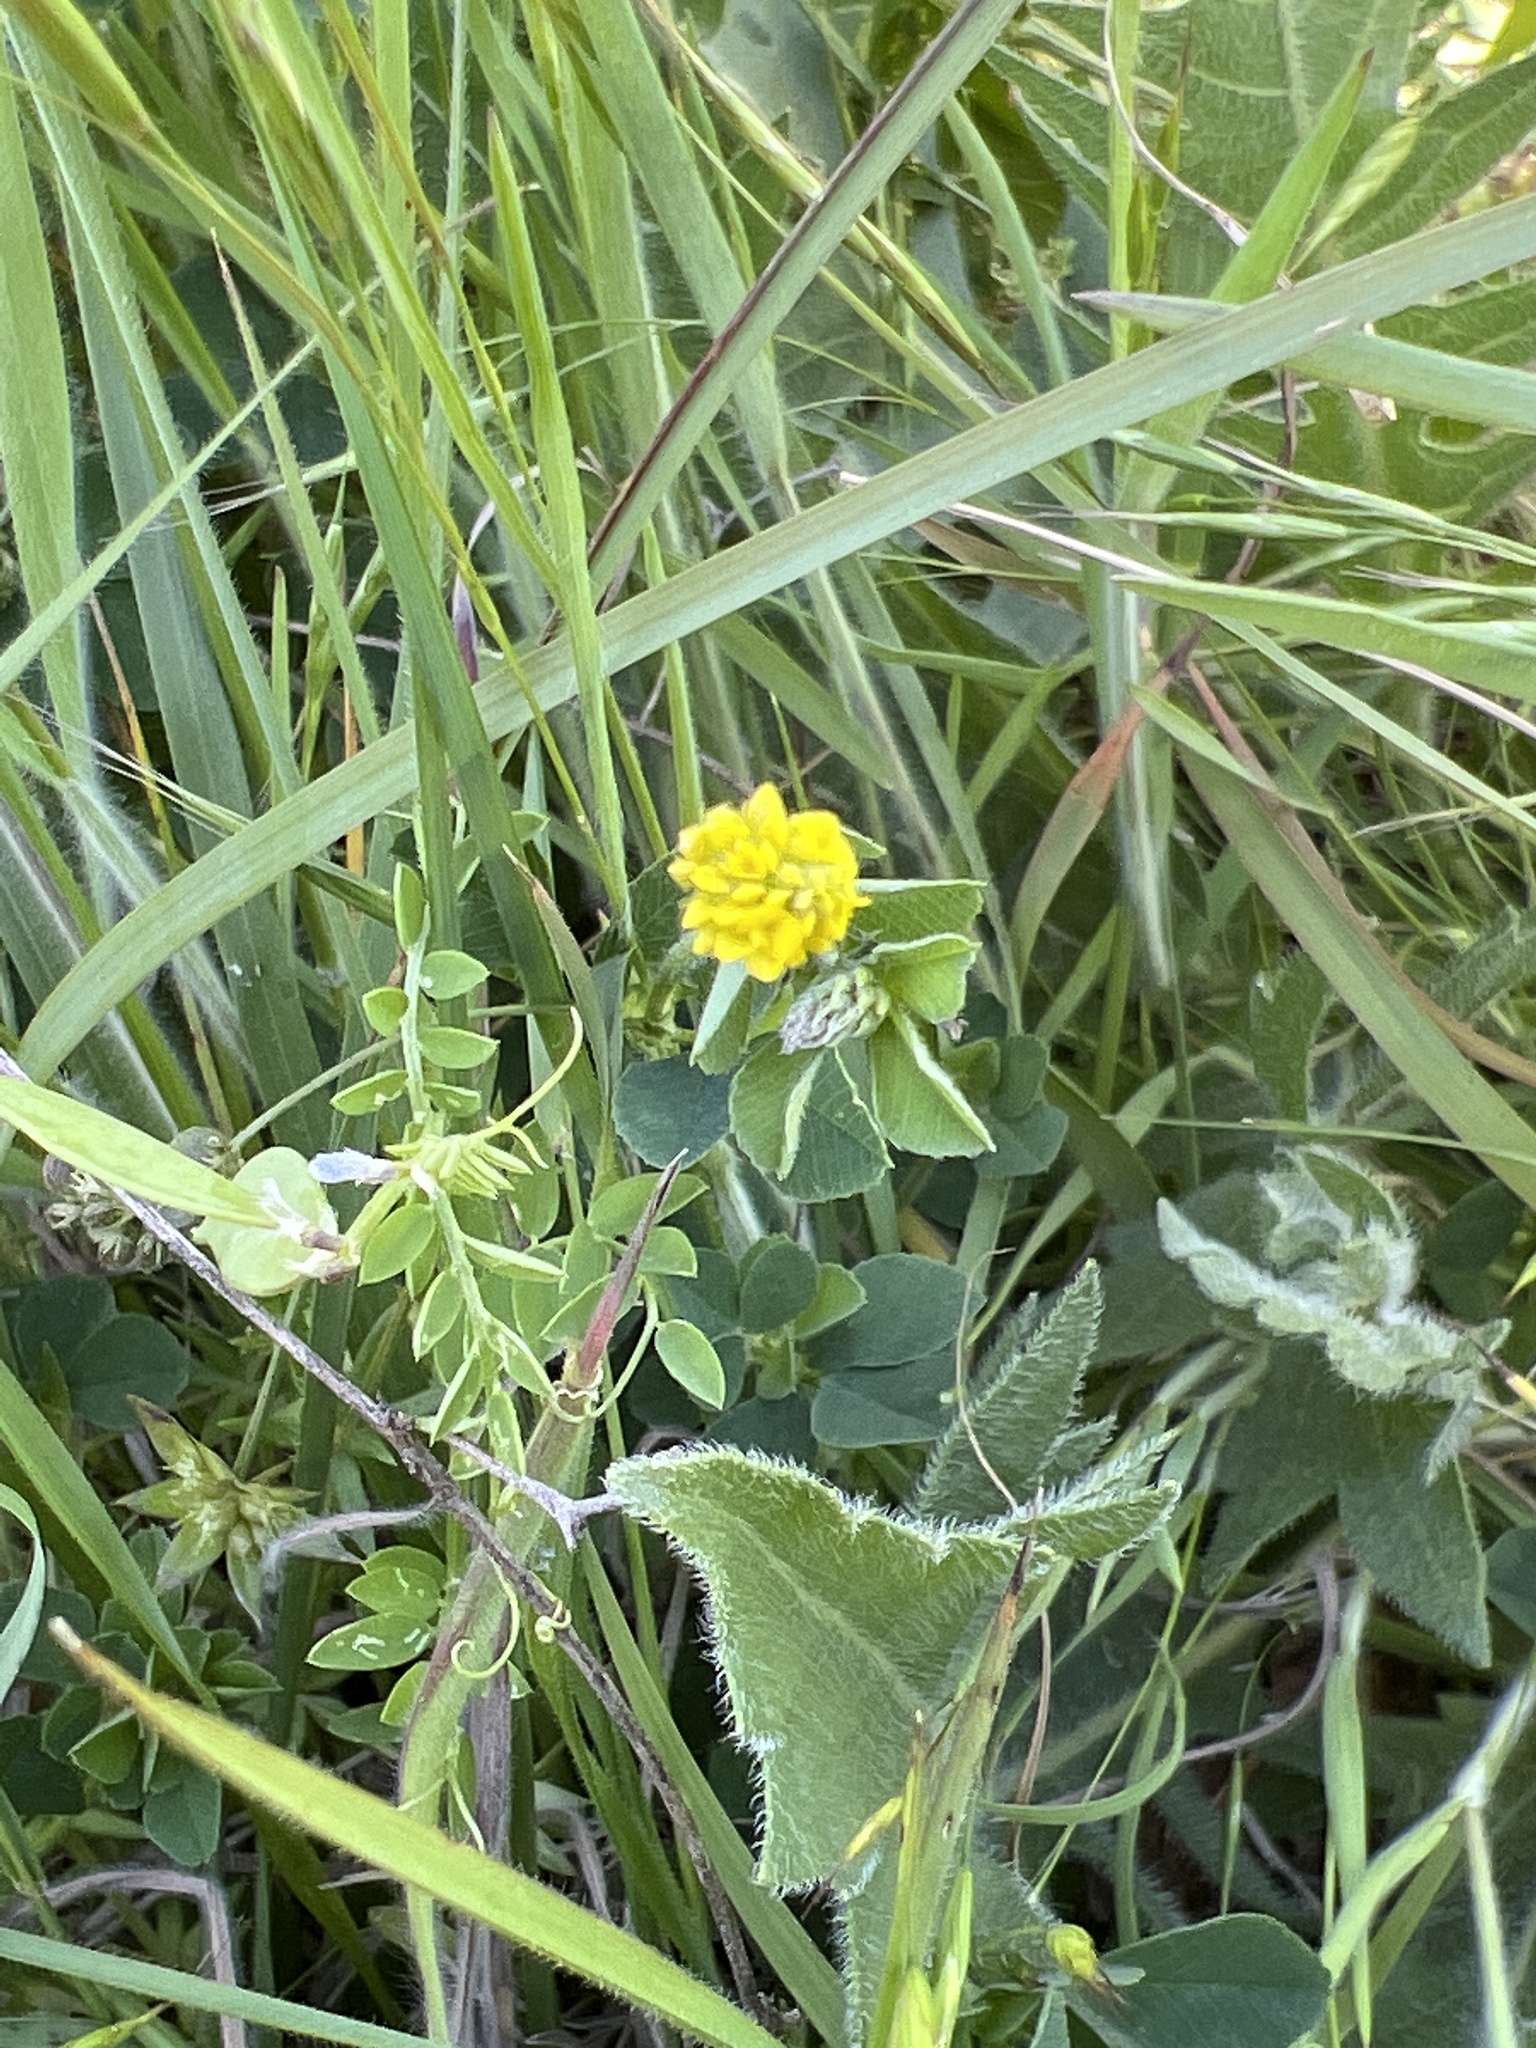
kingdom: Plantae
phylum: Tracheophyta
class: Magnoliopsida
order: Fabales
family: Fabaceae
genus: Medicago
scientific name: Medicago lupulina
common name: Black medick
